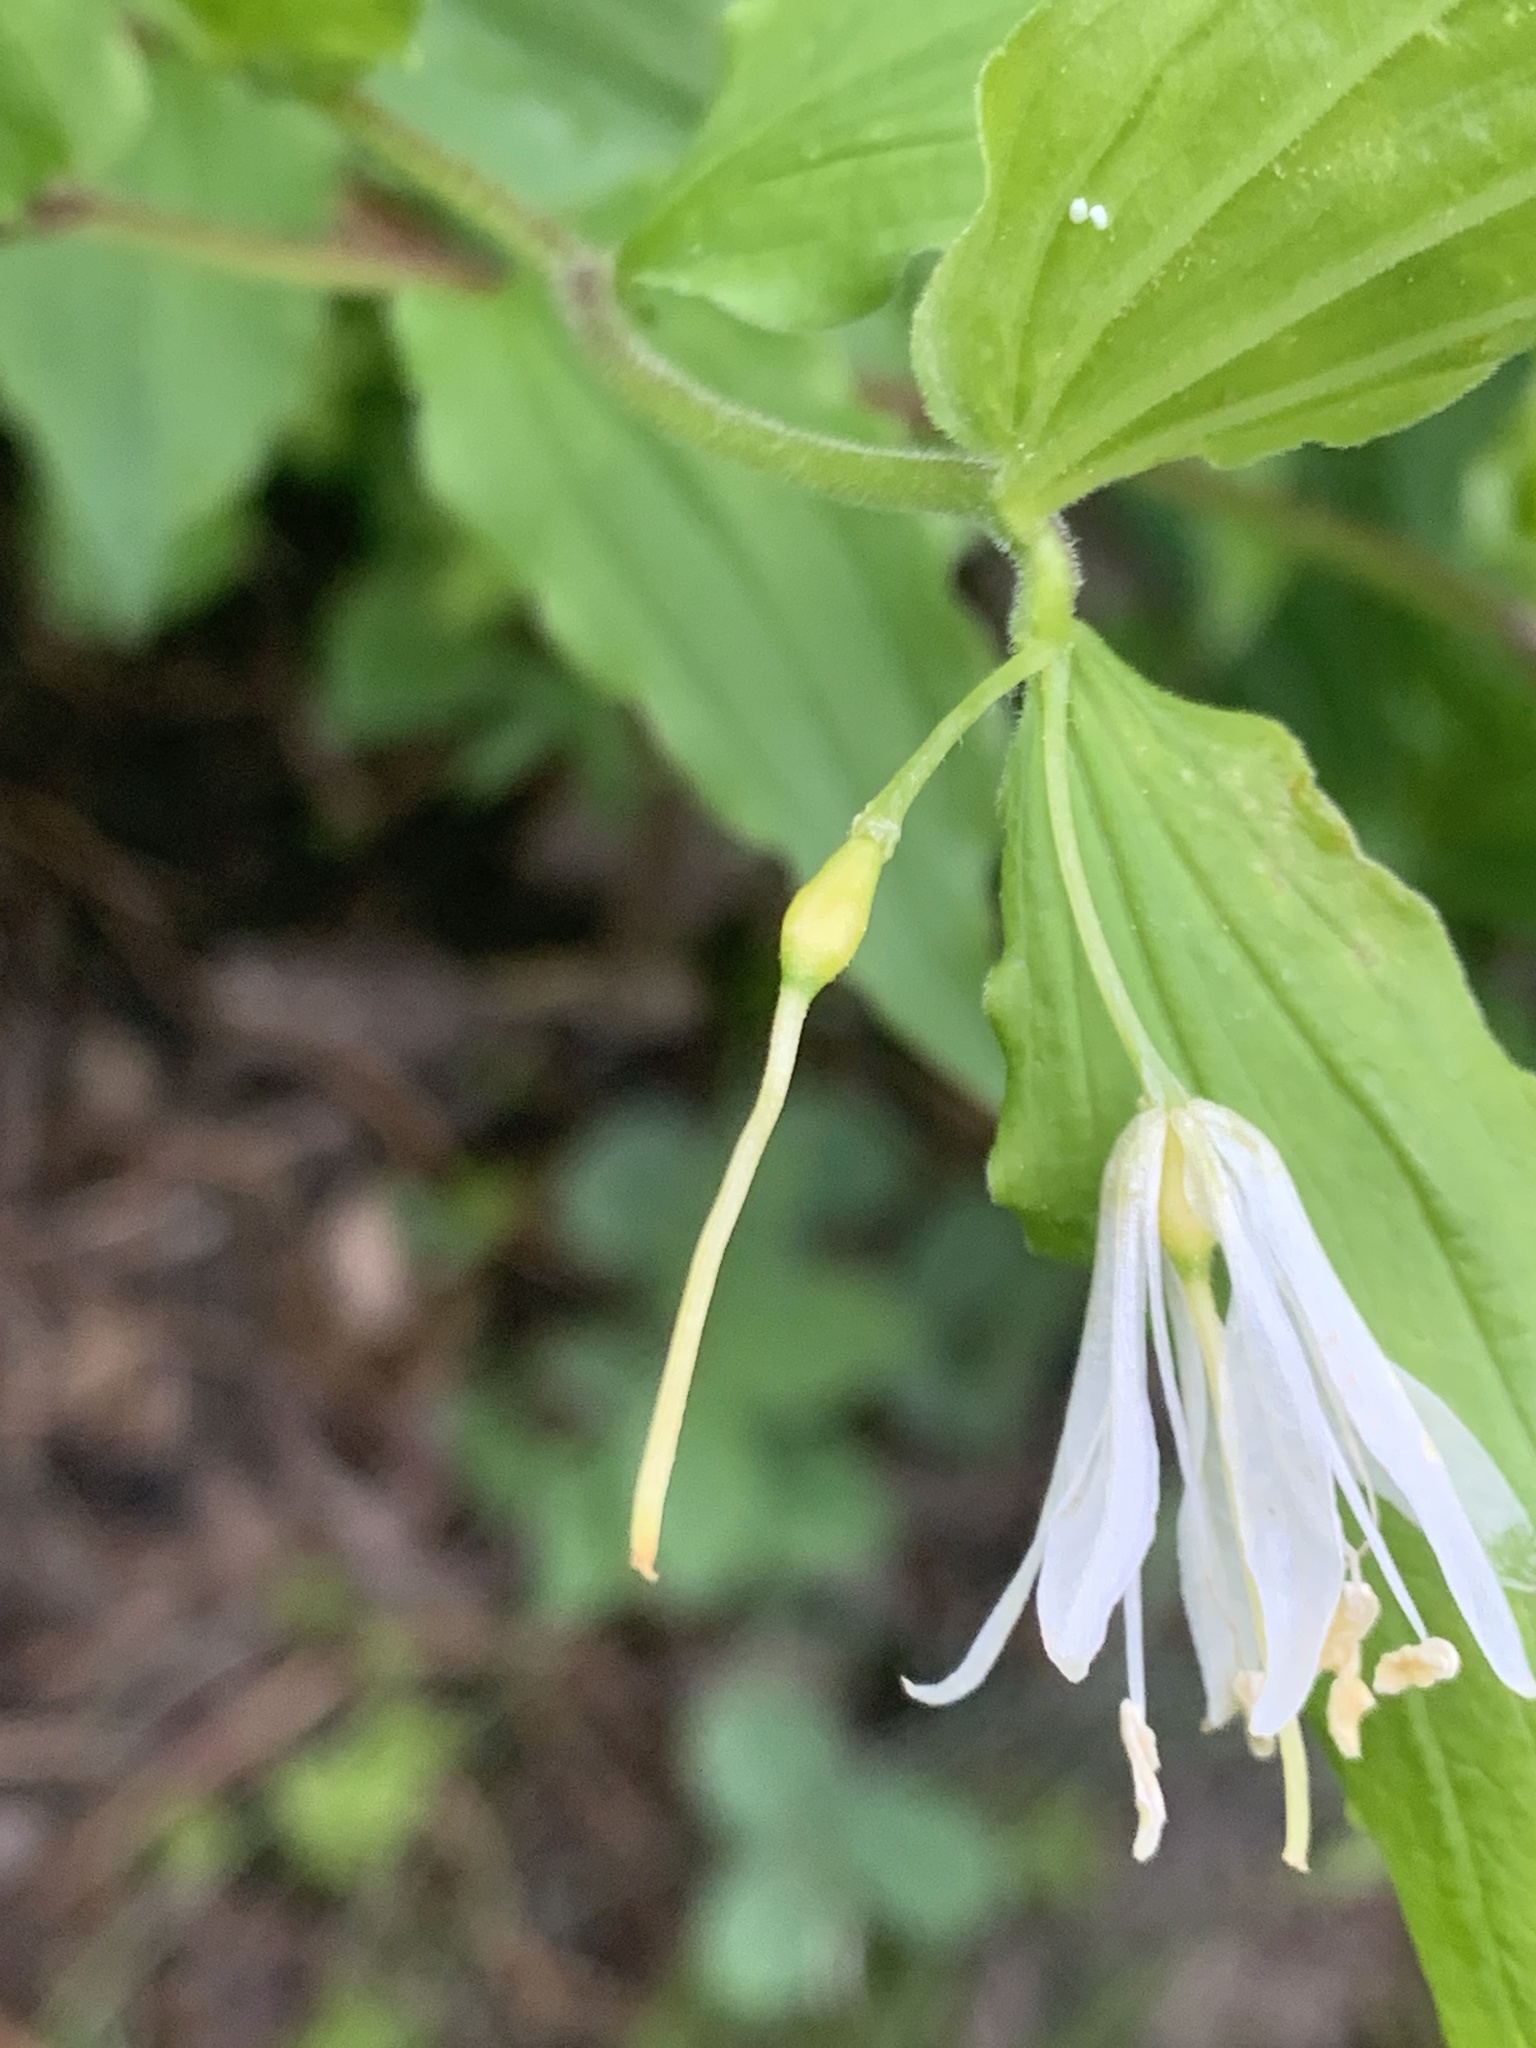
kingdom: Plantae
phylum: Tracheophyta
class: Liliopsida
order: Liliales
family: Liliaceae
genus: Prosartes
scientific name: Prosartes hookeri
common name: Fairy-bells
